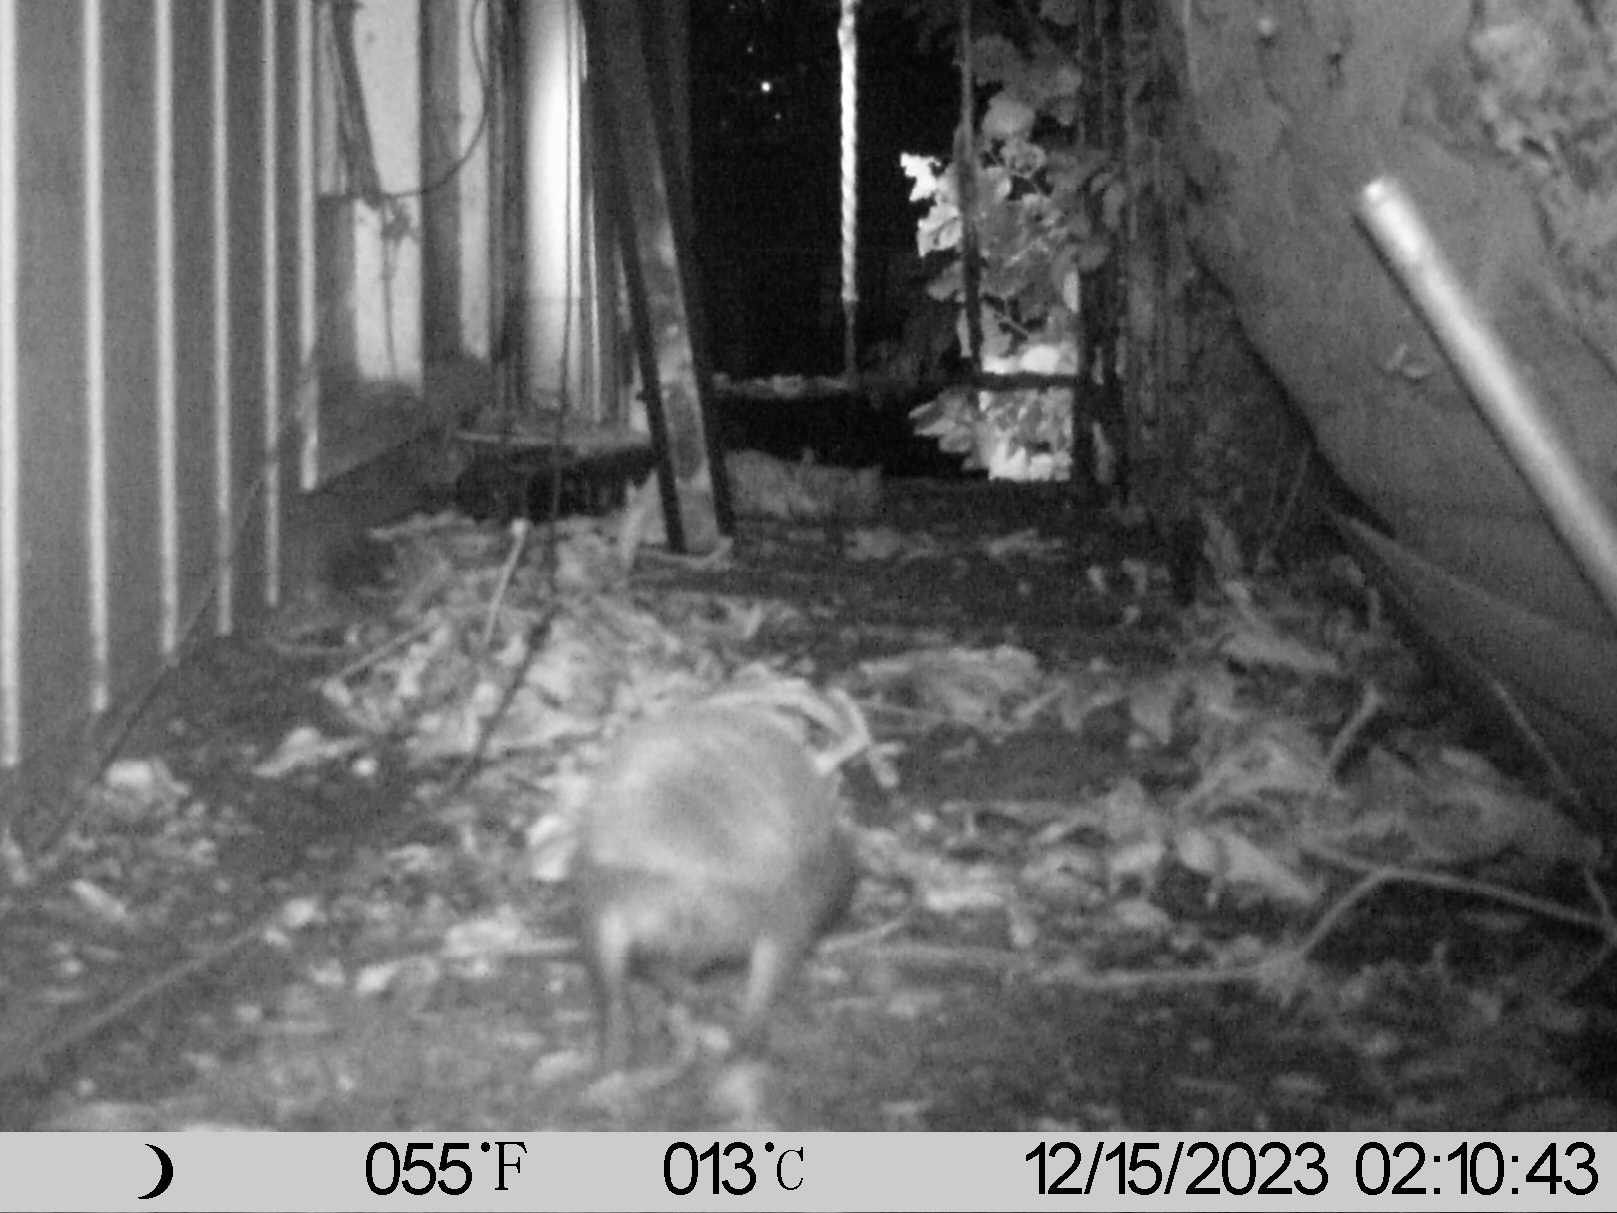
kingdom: Animalia
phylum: Chordata
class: Mammalia
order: Erinaceomorpha
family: Erinaceidae
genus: Erinaceus
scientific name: Erinaceus europaeus
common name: West european hedgehog
